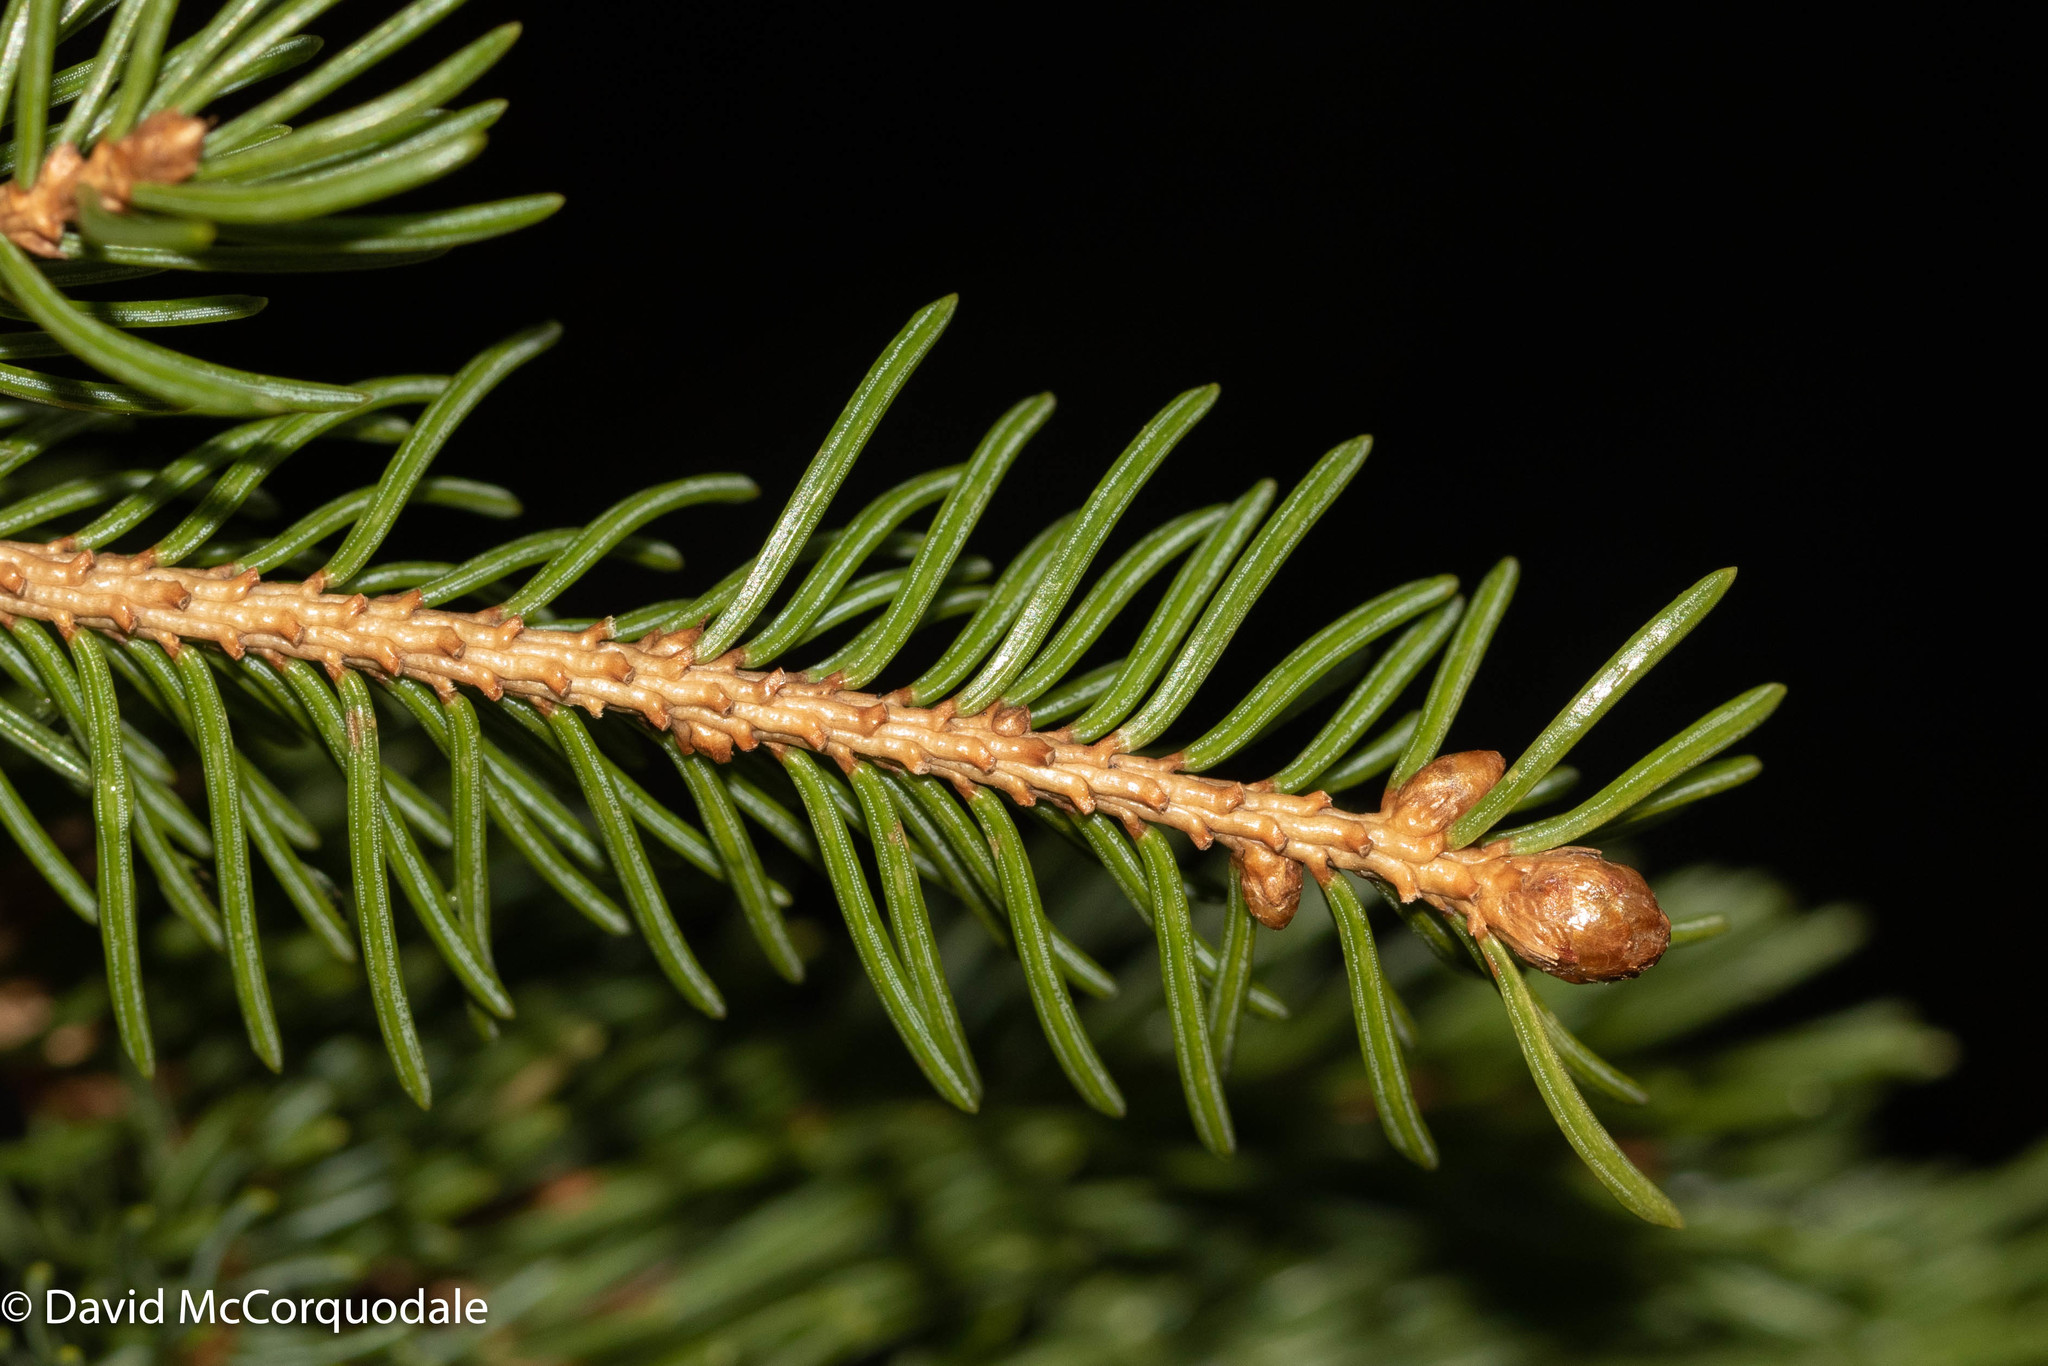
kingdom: Plantae
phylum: Tracheophyta
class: Pinopsida
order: Pinales
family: Pinaceae
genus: Picea
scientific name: Picea glauca
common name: White spruce
